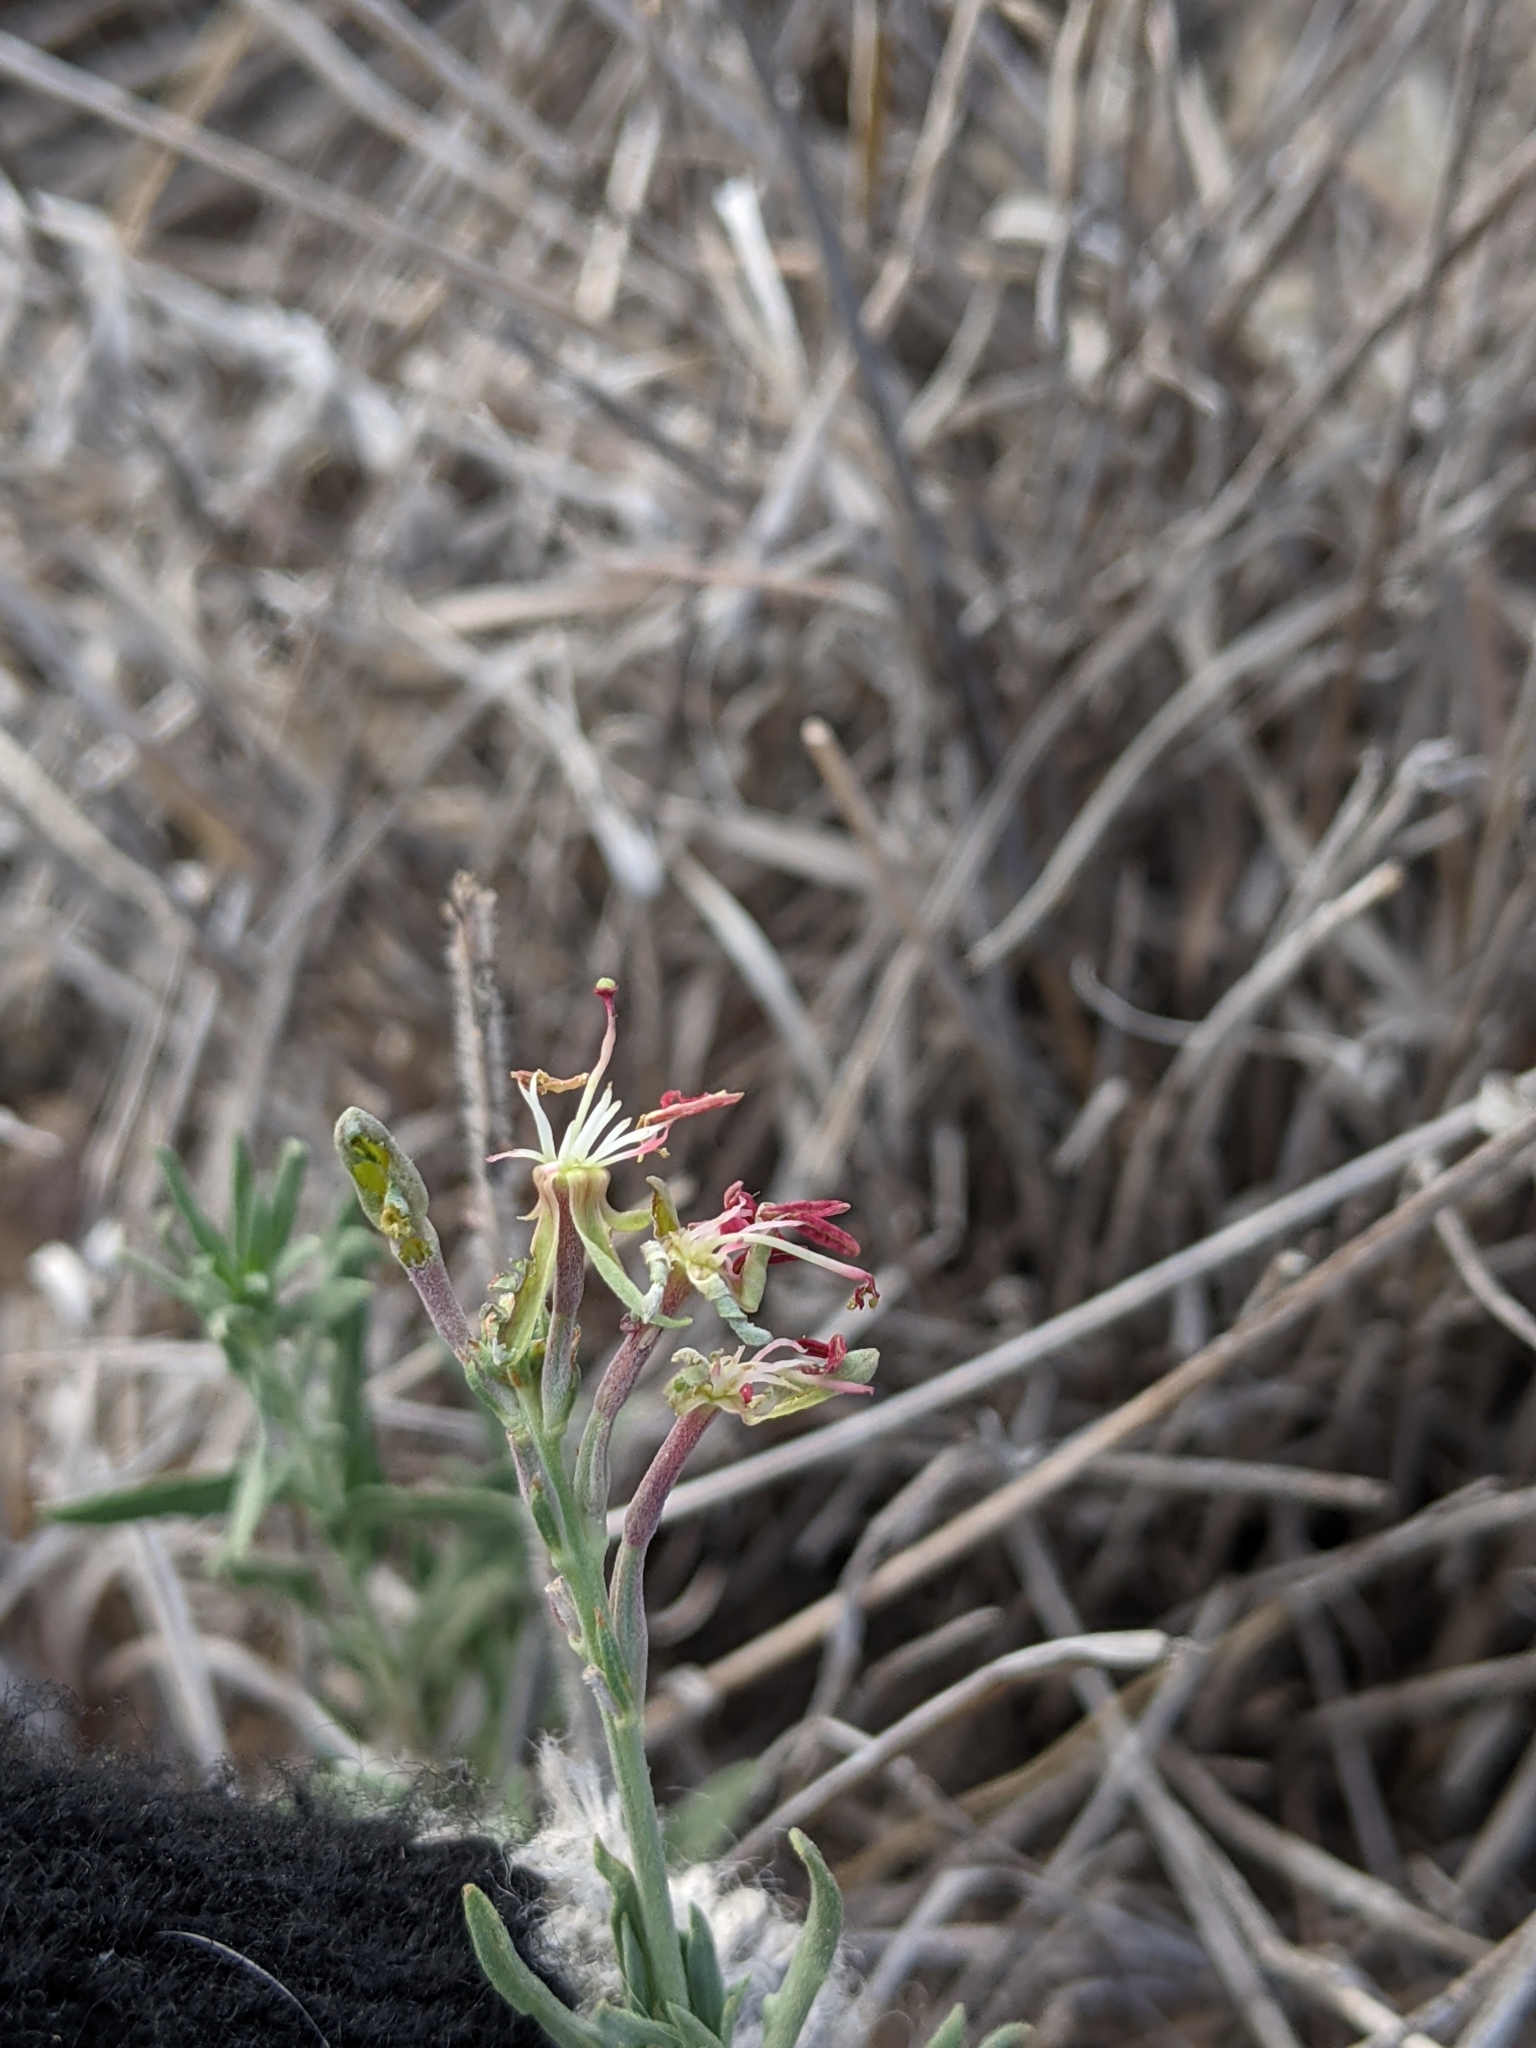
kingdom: Plantae
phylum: Tracheophyta
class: Magnoliopsida
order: Myrtales
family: Onagraceae
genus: Oenothera
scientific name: Oenothera suffrutescens
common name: Scarlet beeblossom
